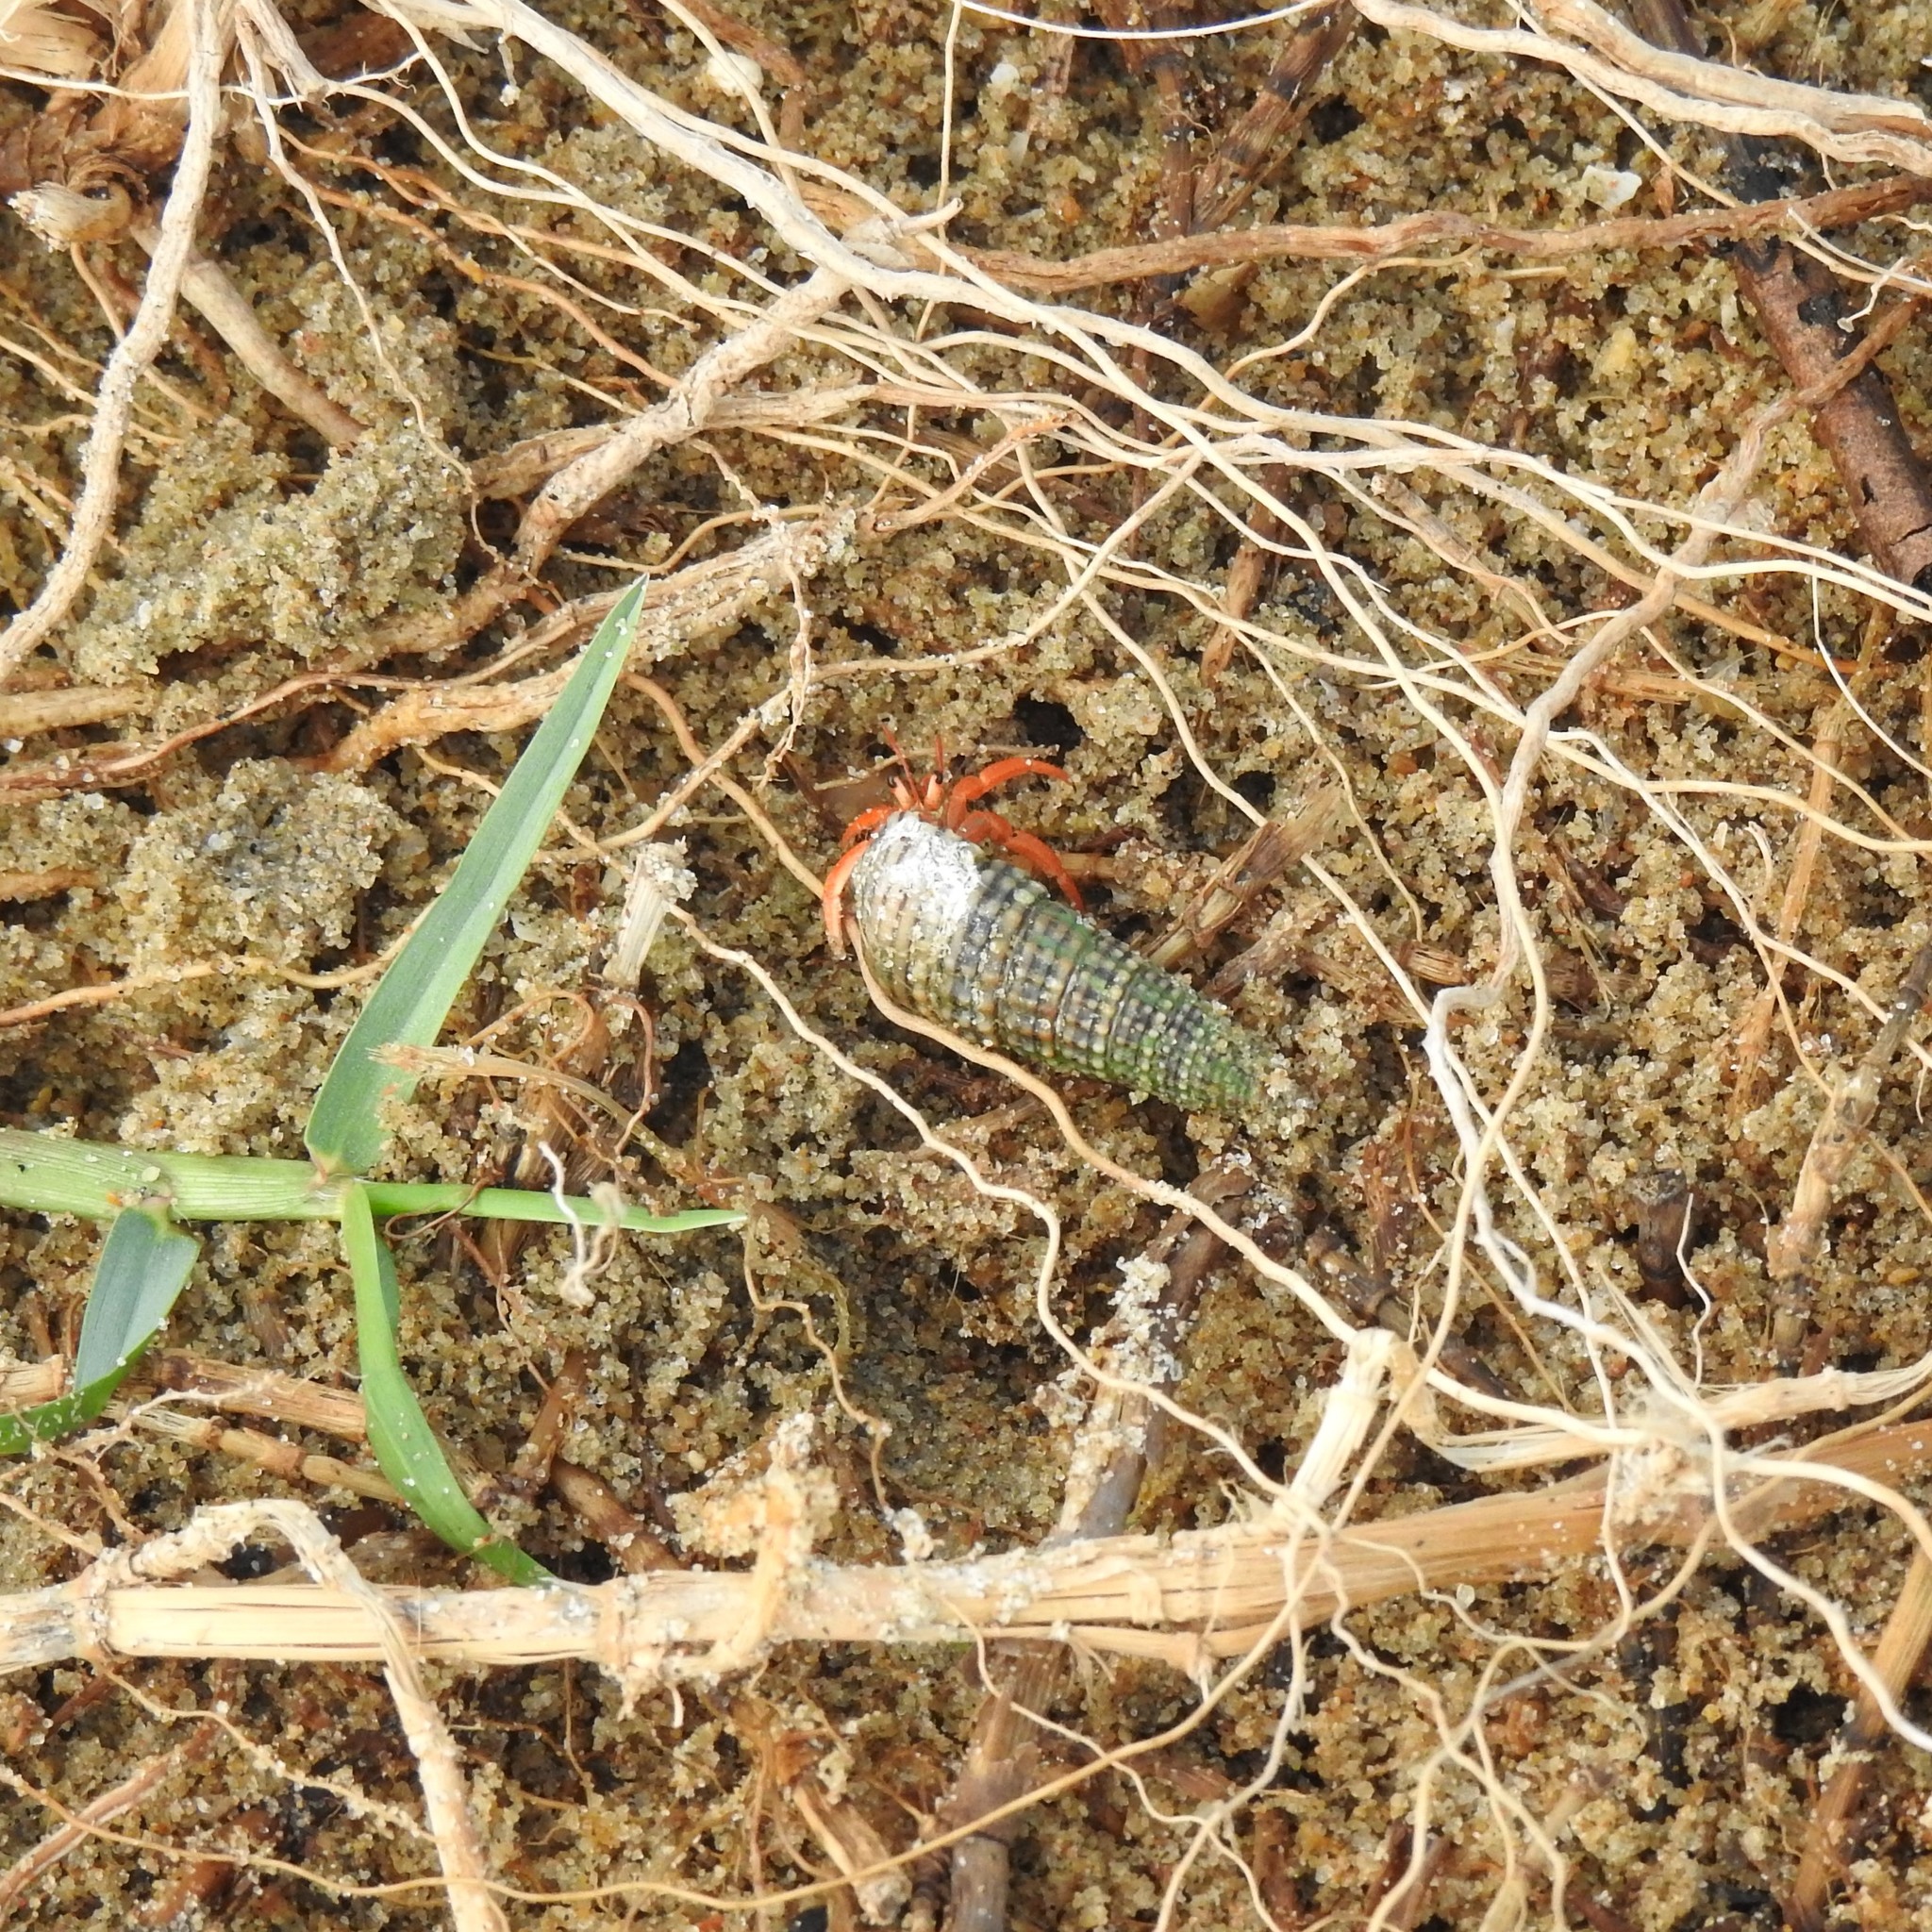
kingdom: Animalia
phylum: Arthropoda
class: Malacostraca
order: Decapoda
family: Coenobitidae
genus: Coenobita
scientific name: Coenobita violascens
